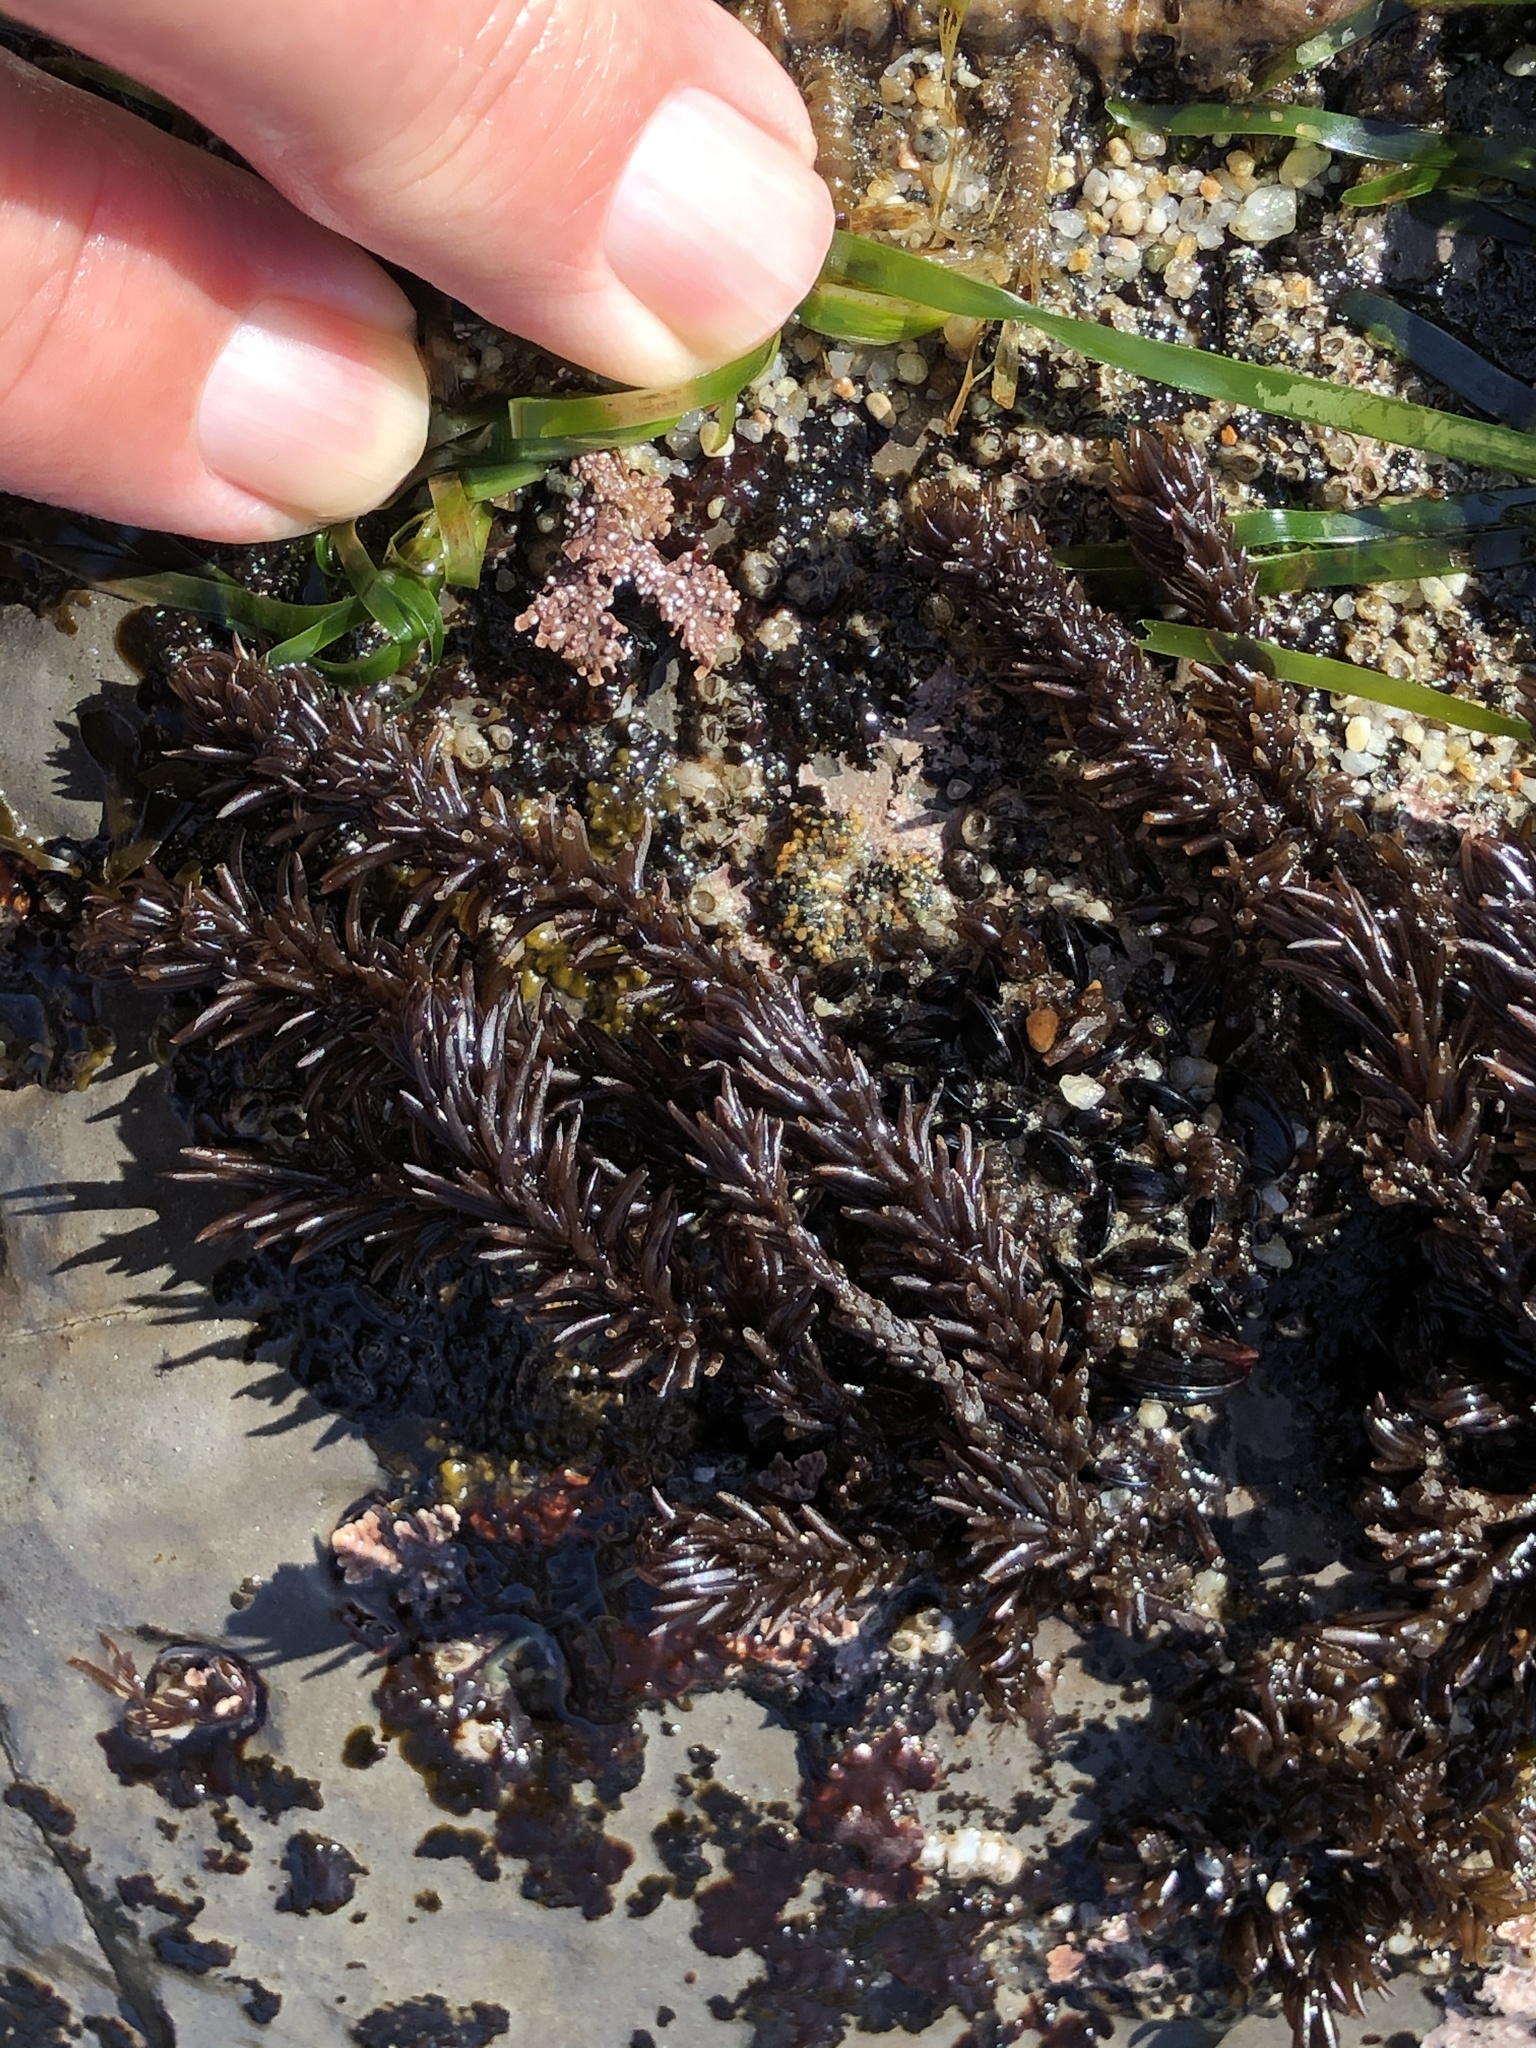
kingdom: Plantae
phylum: Rhodophyta
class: Florideophyceae
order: Ceramiales
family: Rhodomelaceae
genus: Neorhodomela
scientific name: Neorhodomela larix
